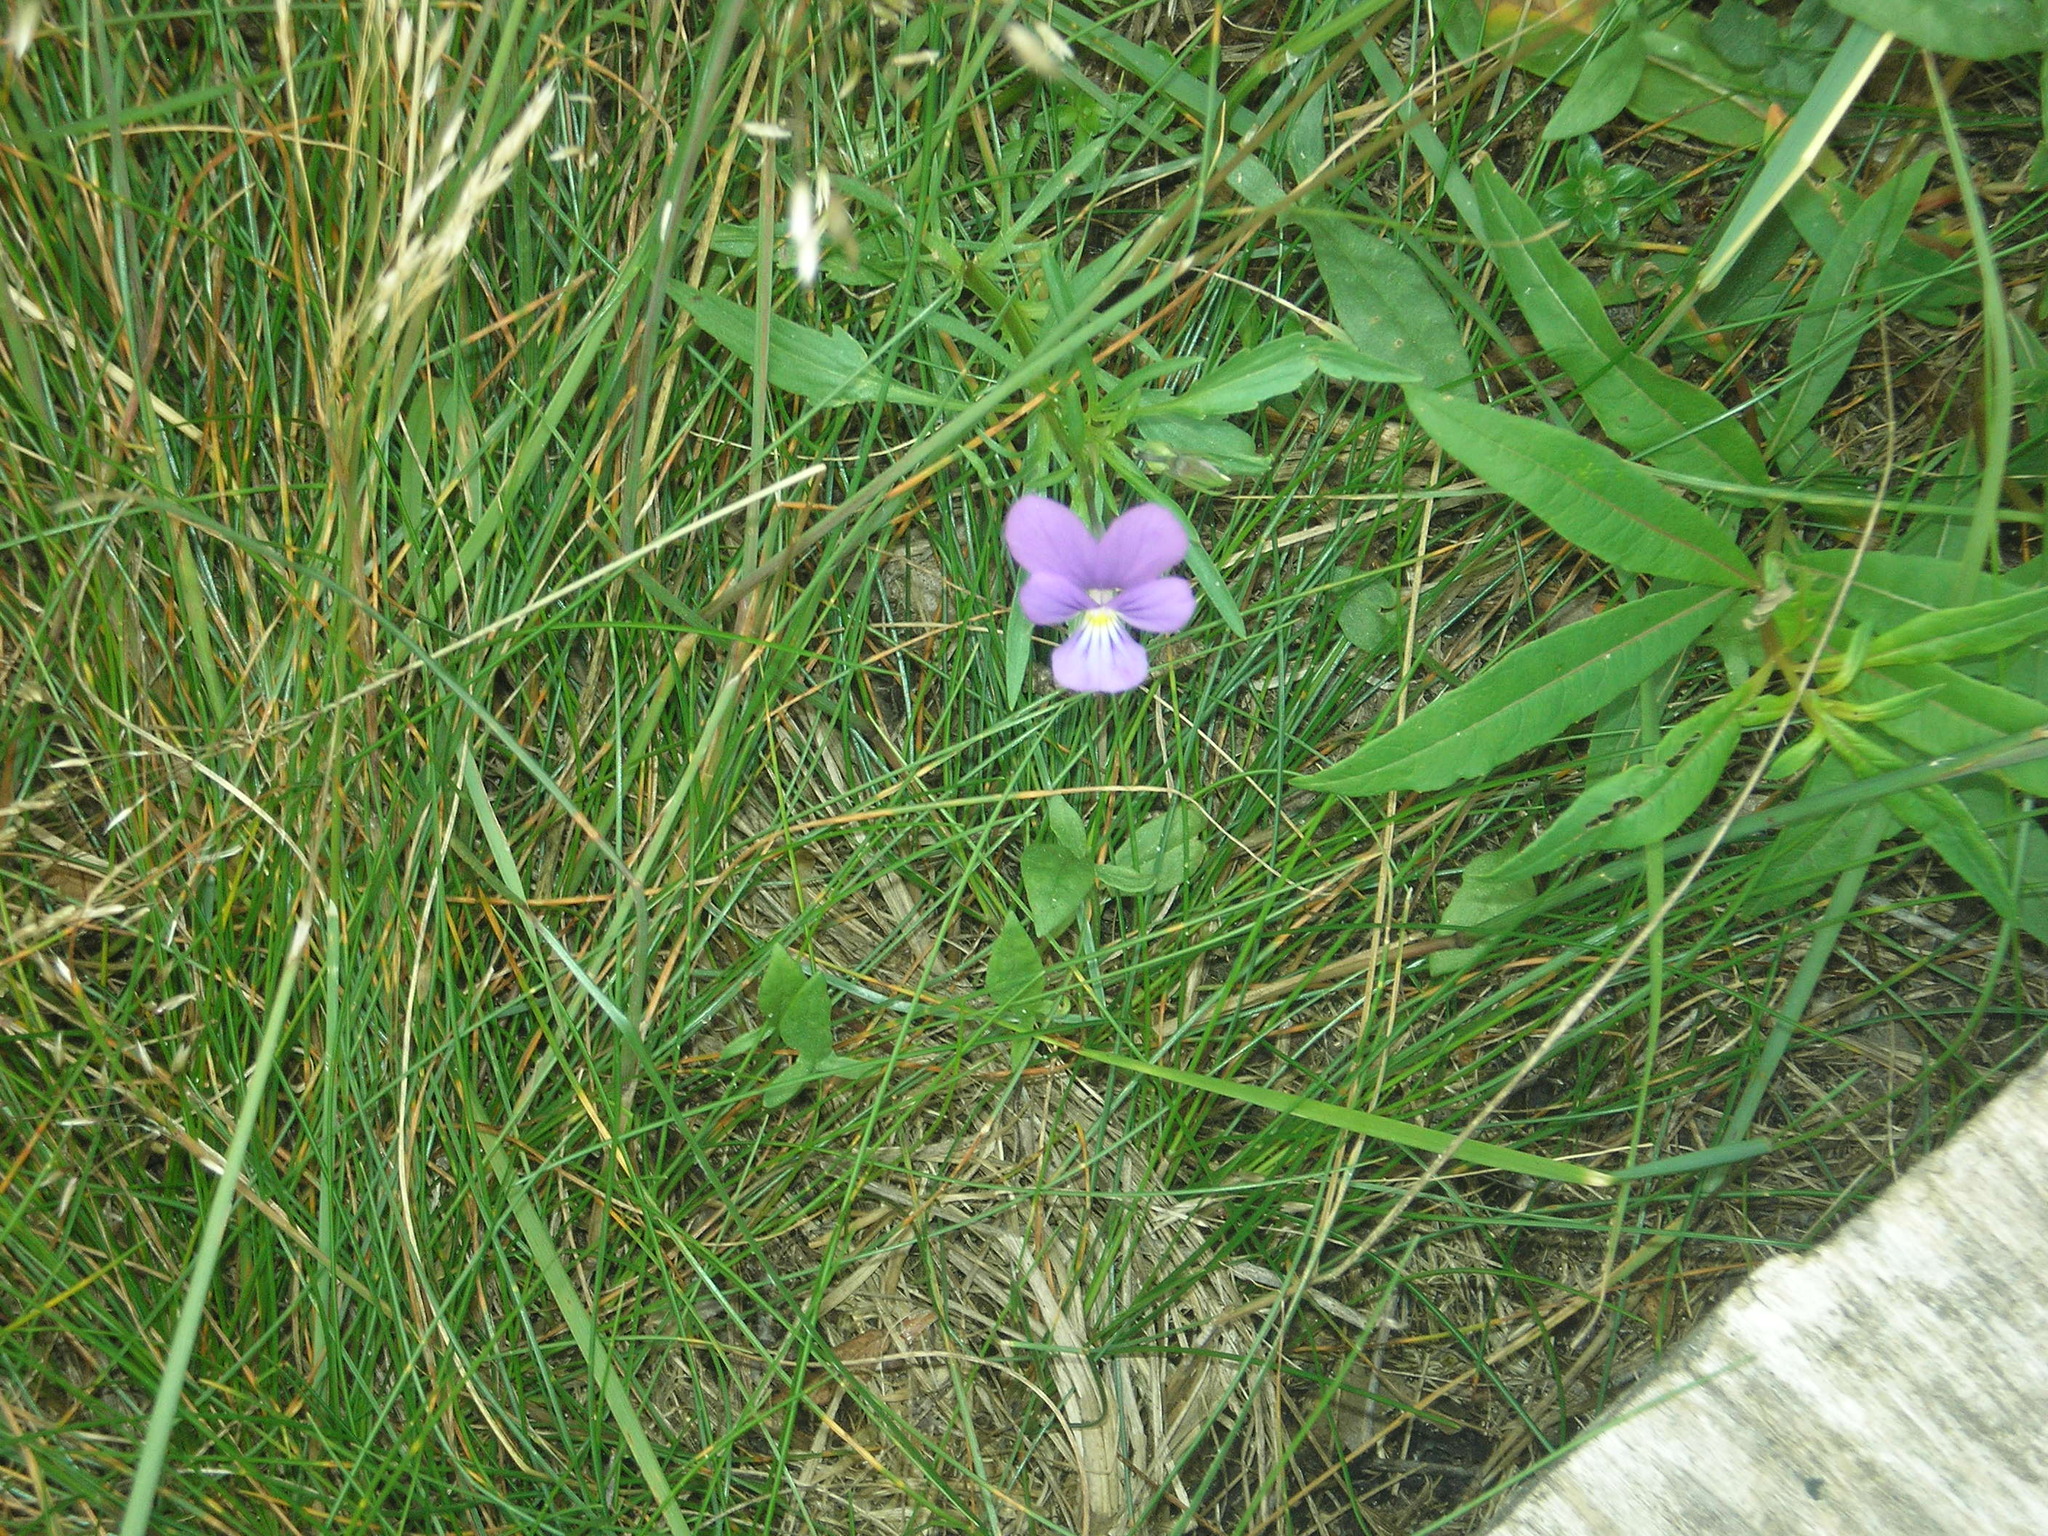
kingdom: Plantae
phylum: Tracheophyta
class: Magnoliopsida
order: Malpighiales
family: Violaceae
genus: Viola
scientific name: Viola tricolor
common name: Pansy
